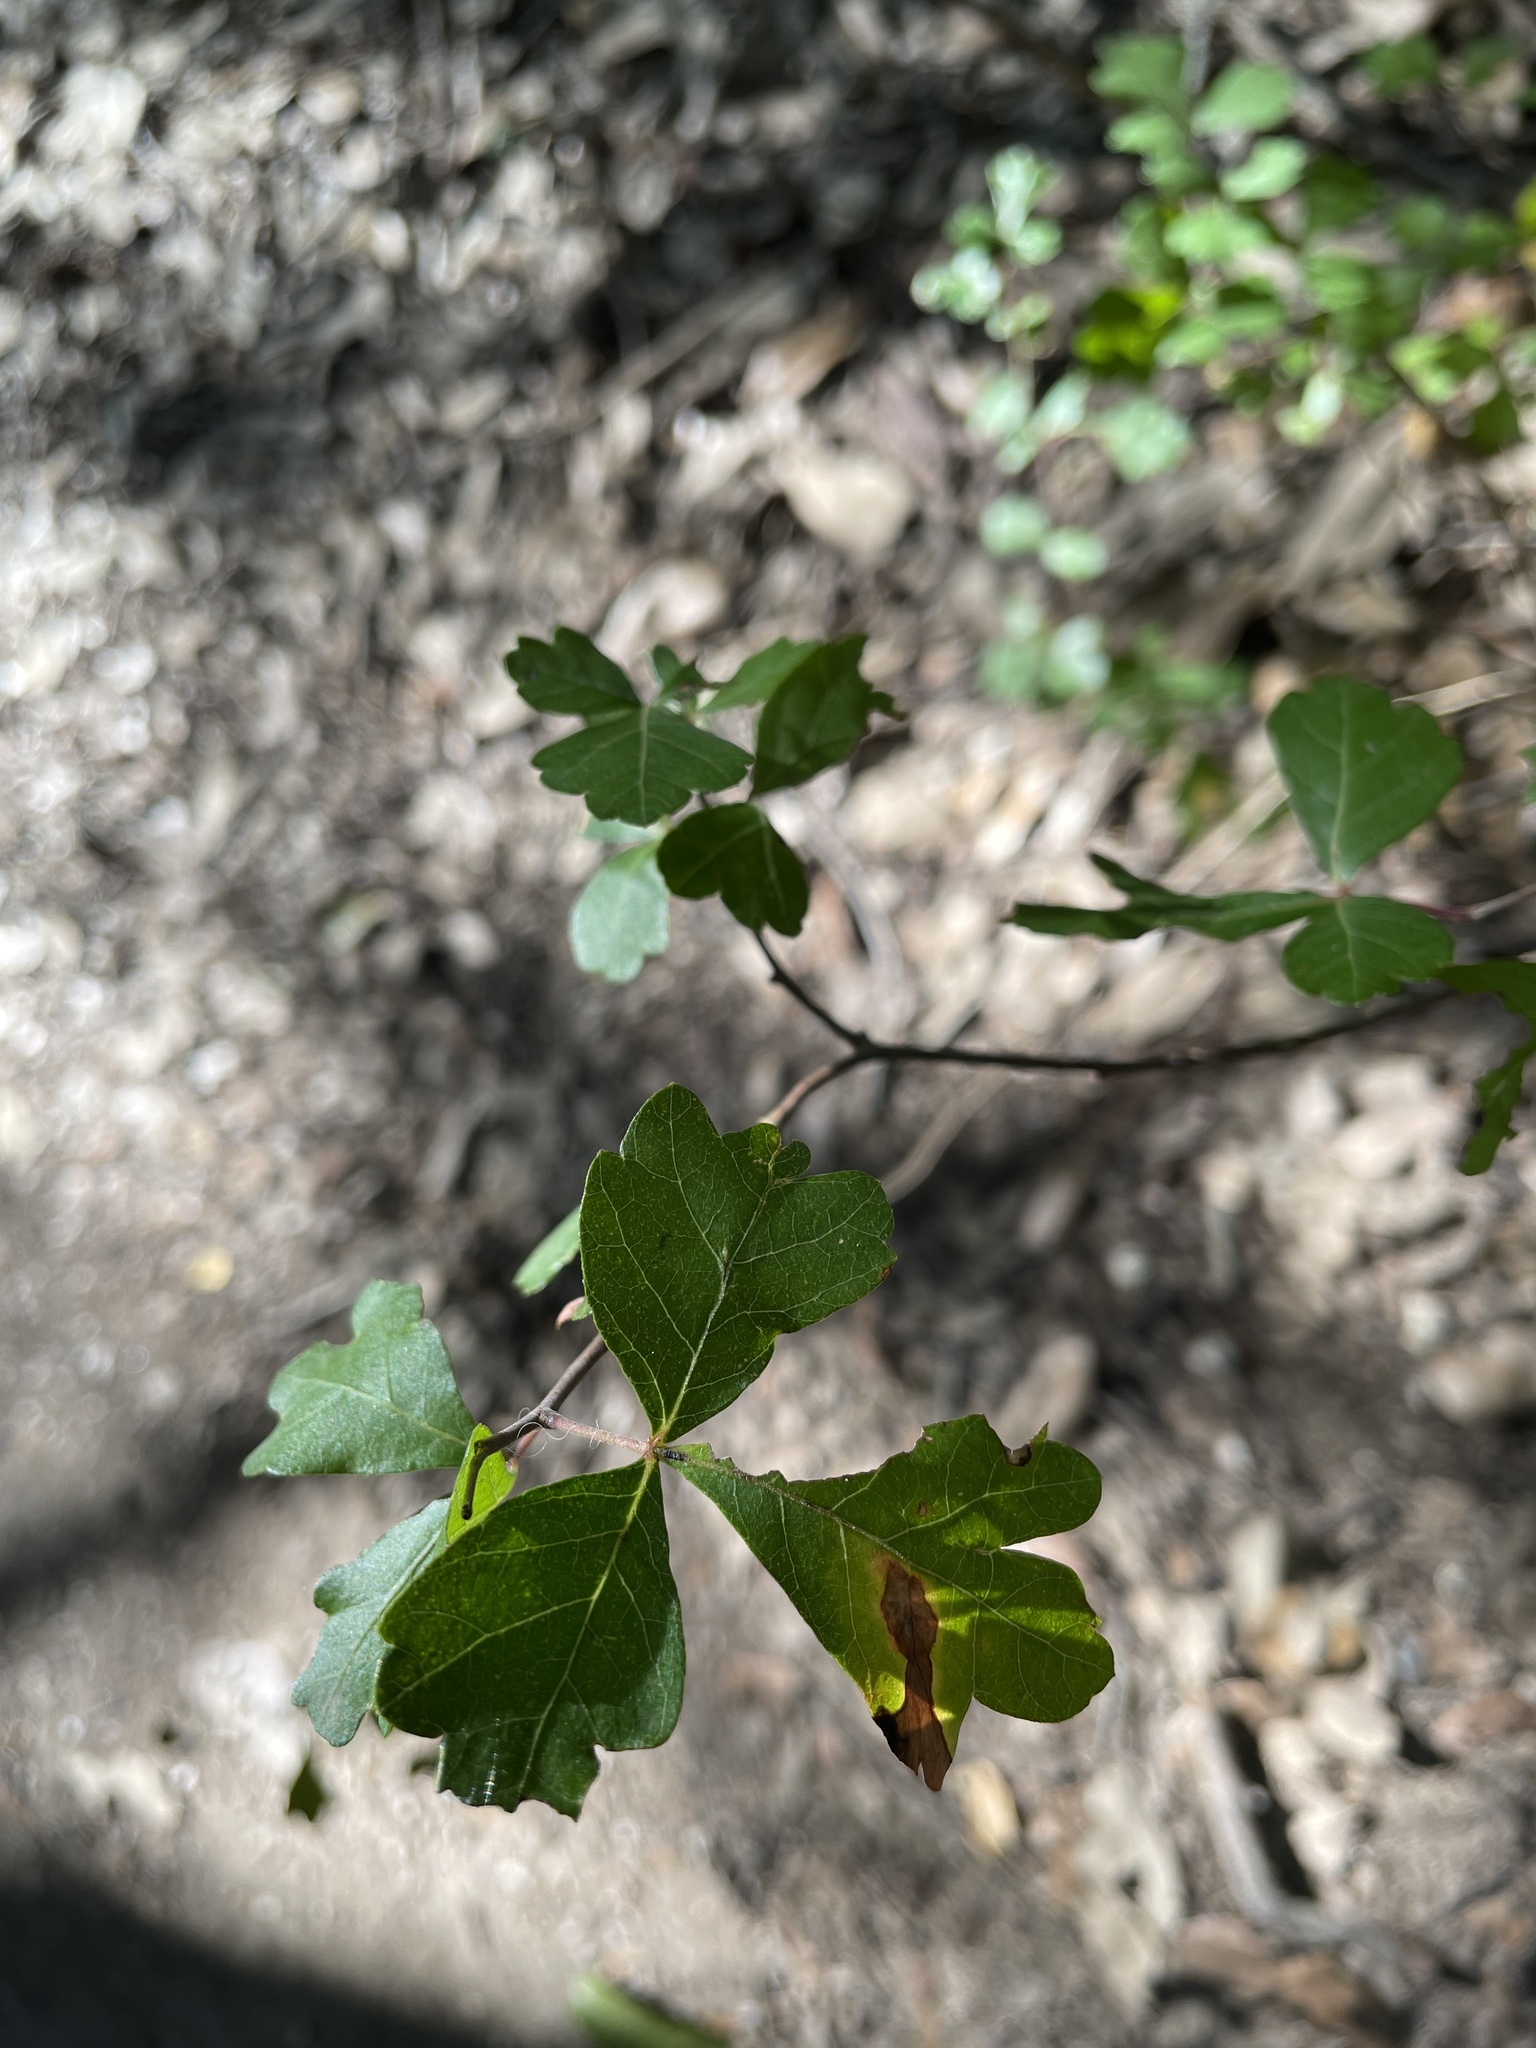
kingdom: Plantae
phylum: Tracheophyta
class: Magnoliopsida
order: Sapindales
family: Anacardiaceae
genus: Rhus
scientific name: Rhus aromatica
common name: Aromatic sumac
